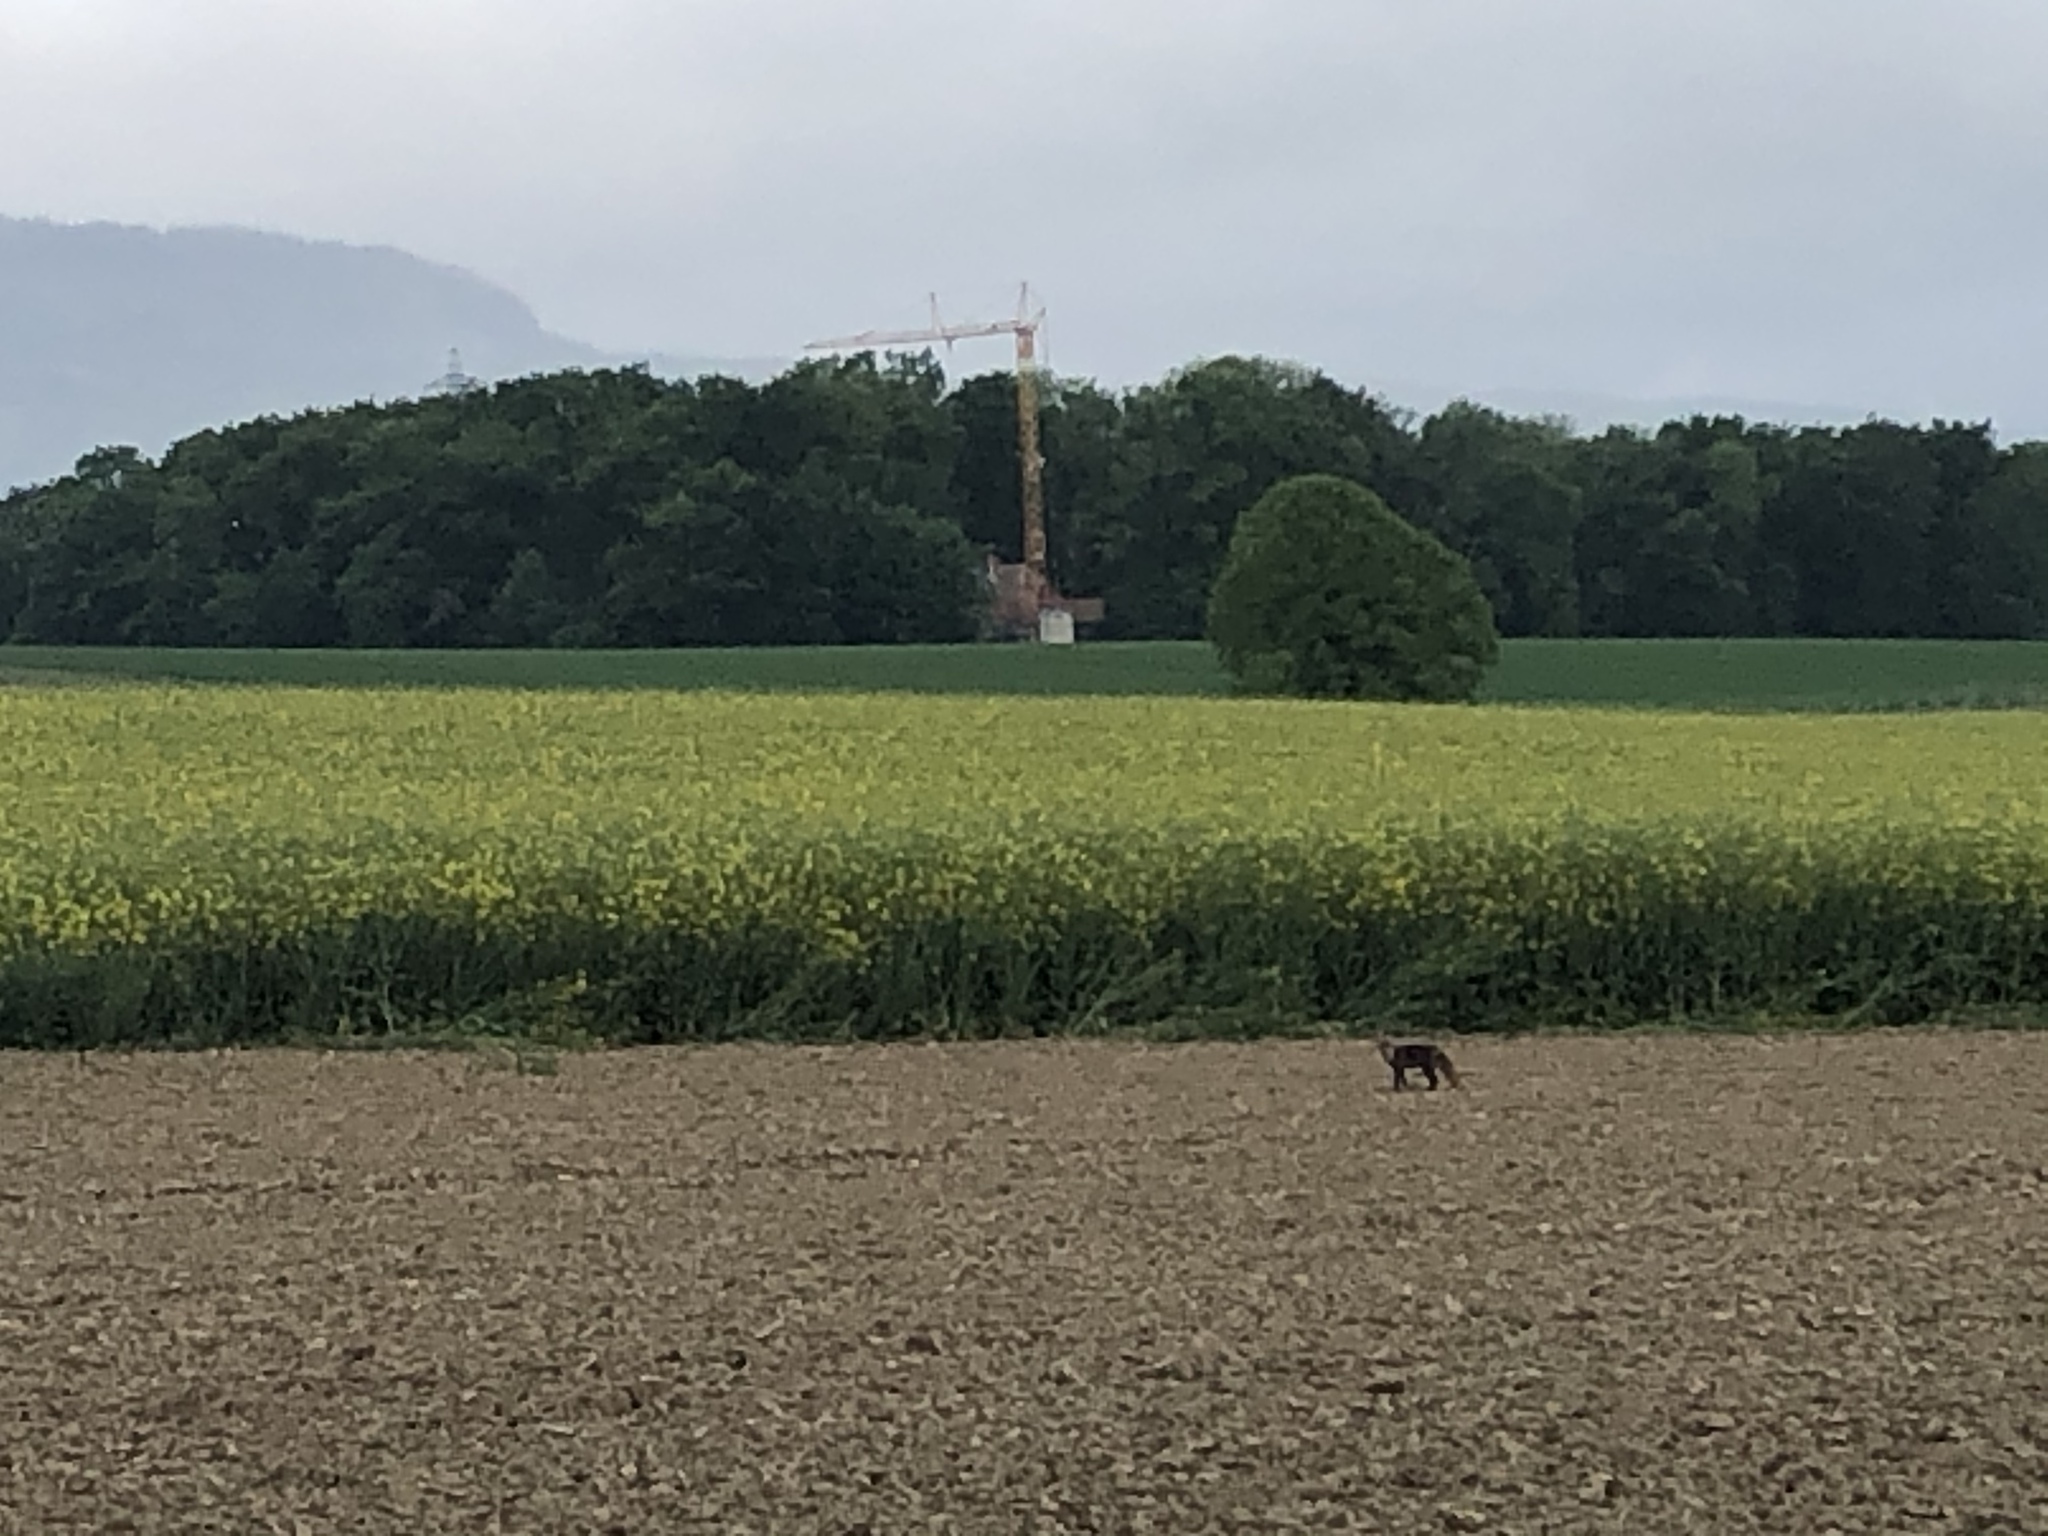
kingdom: Animalia
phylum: Chordata
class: Mammalia
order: Carnivora
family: Canidae
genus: Vulpes
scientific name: Vulpes vulpes
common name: Red fox
